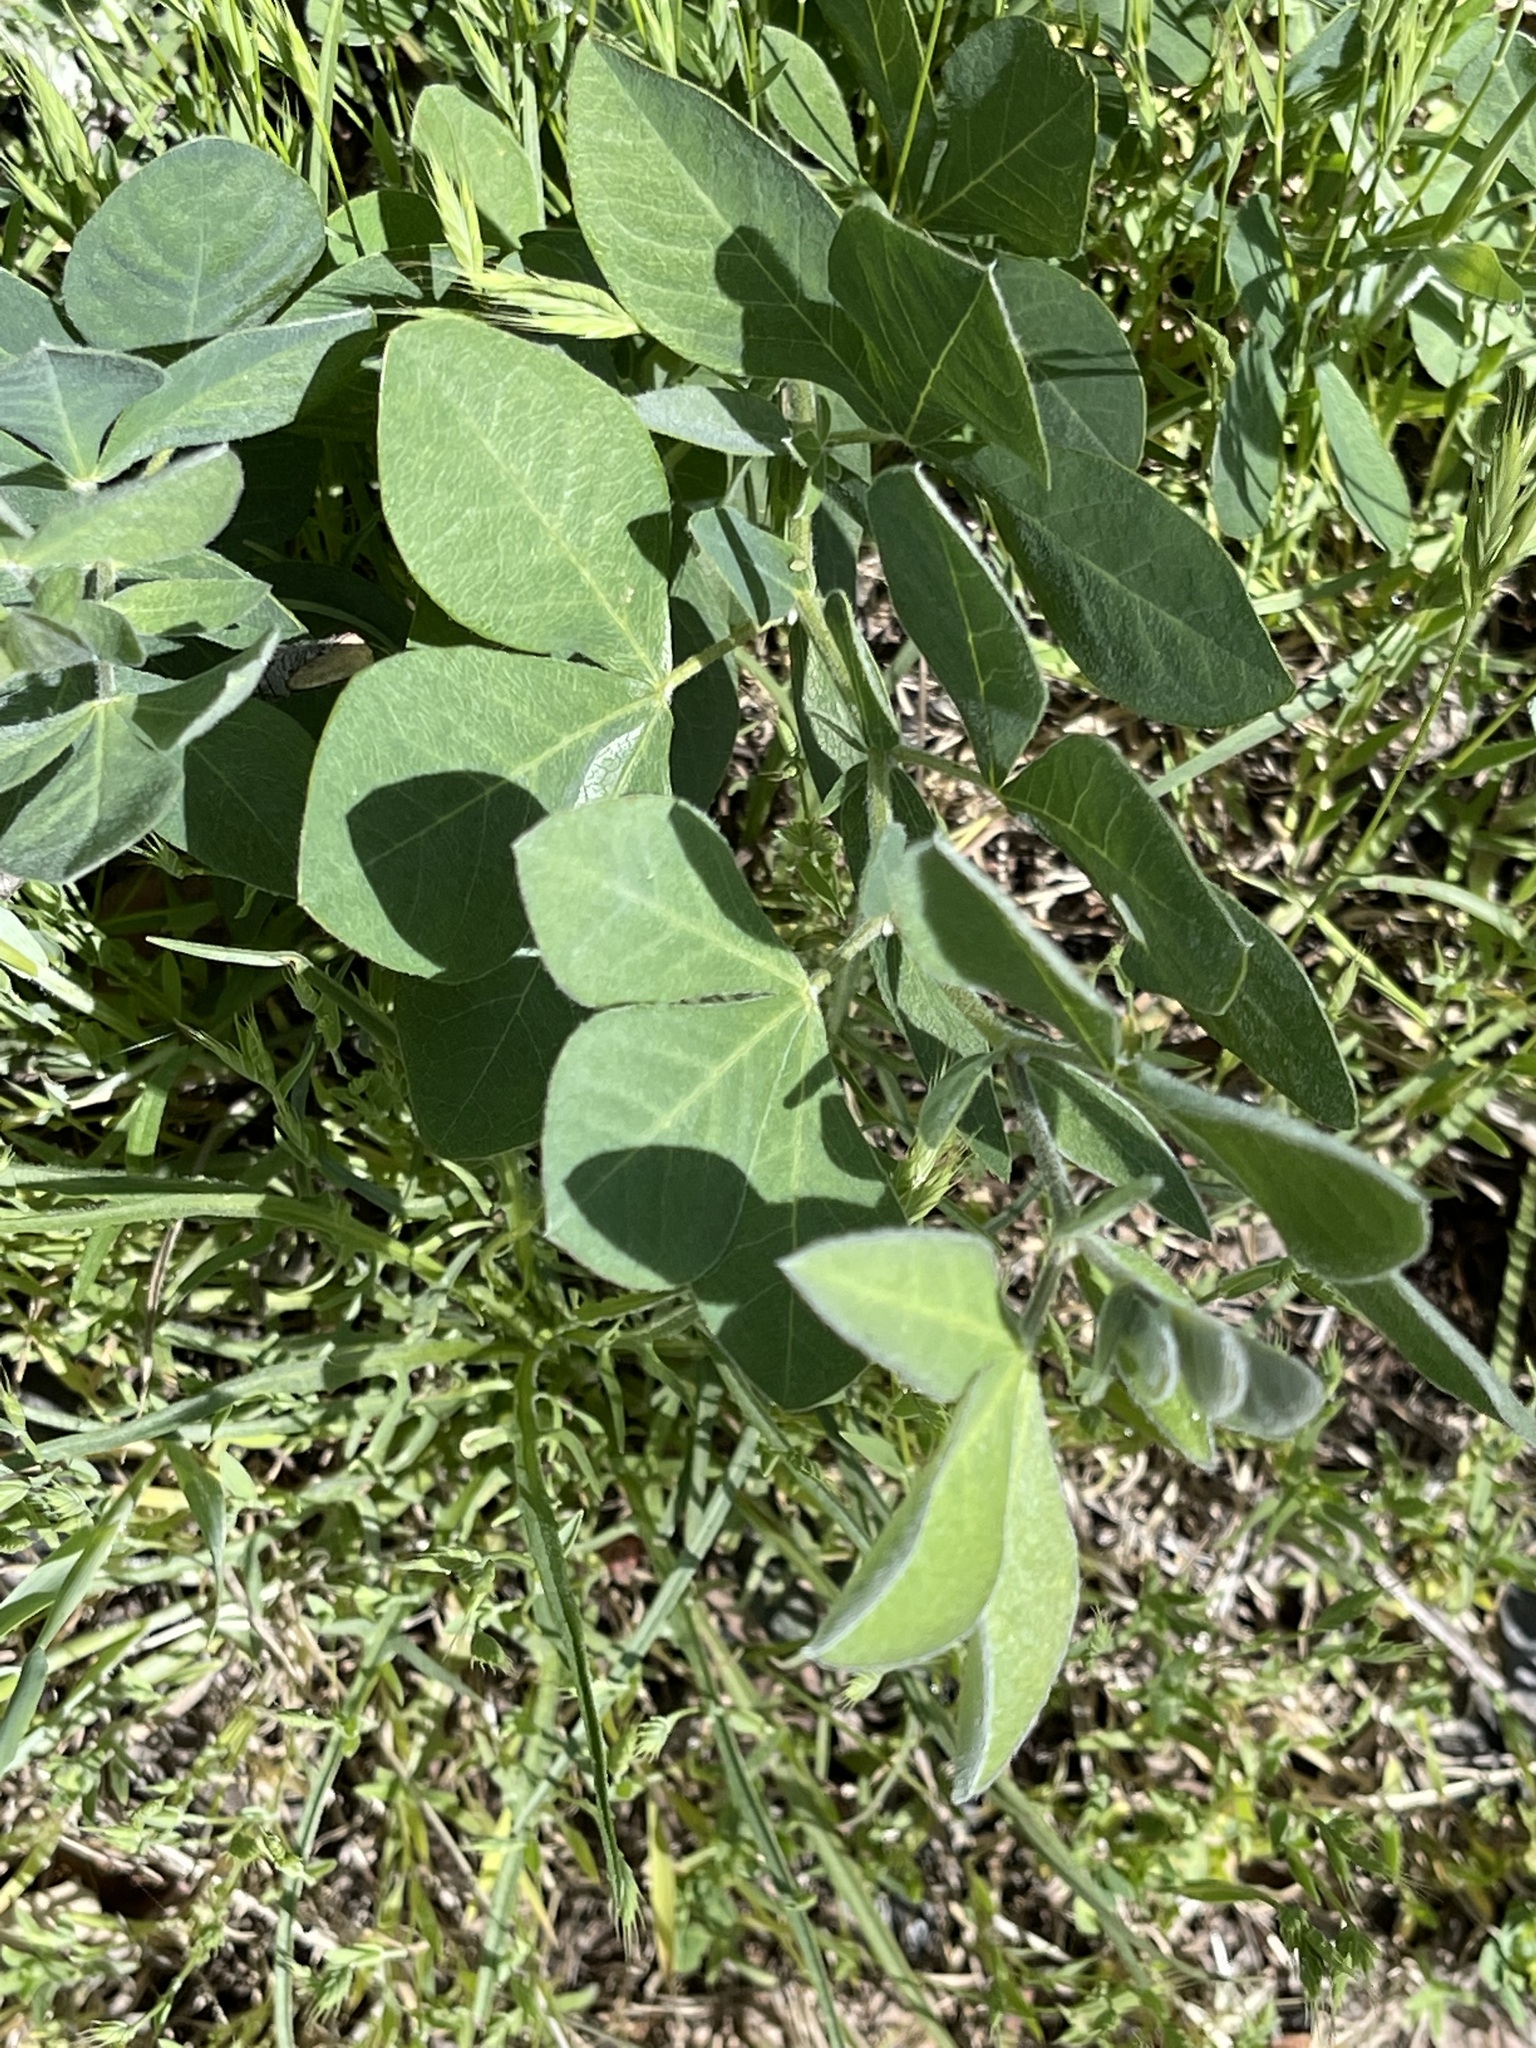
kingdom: Plantae
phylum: Tracheophyta
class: Magnoliopsida
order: Fabales
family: Fabaceae
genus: Thermopsis
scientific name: Thermopsis californica
